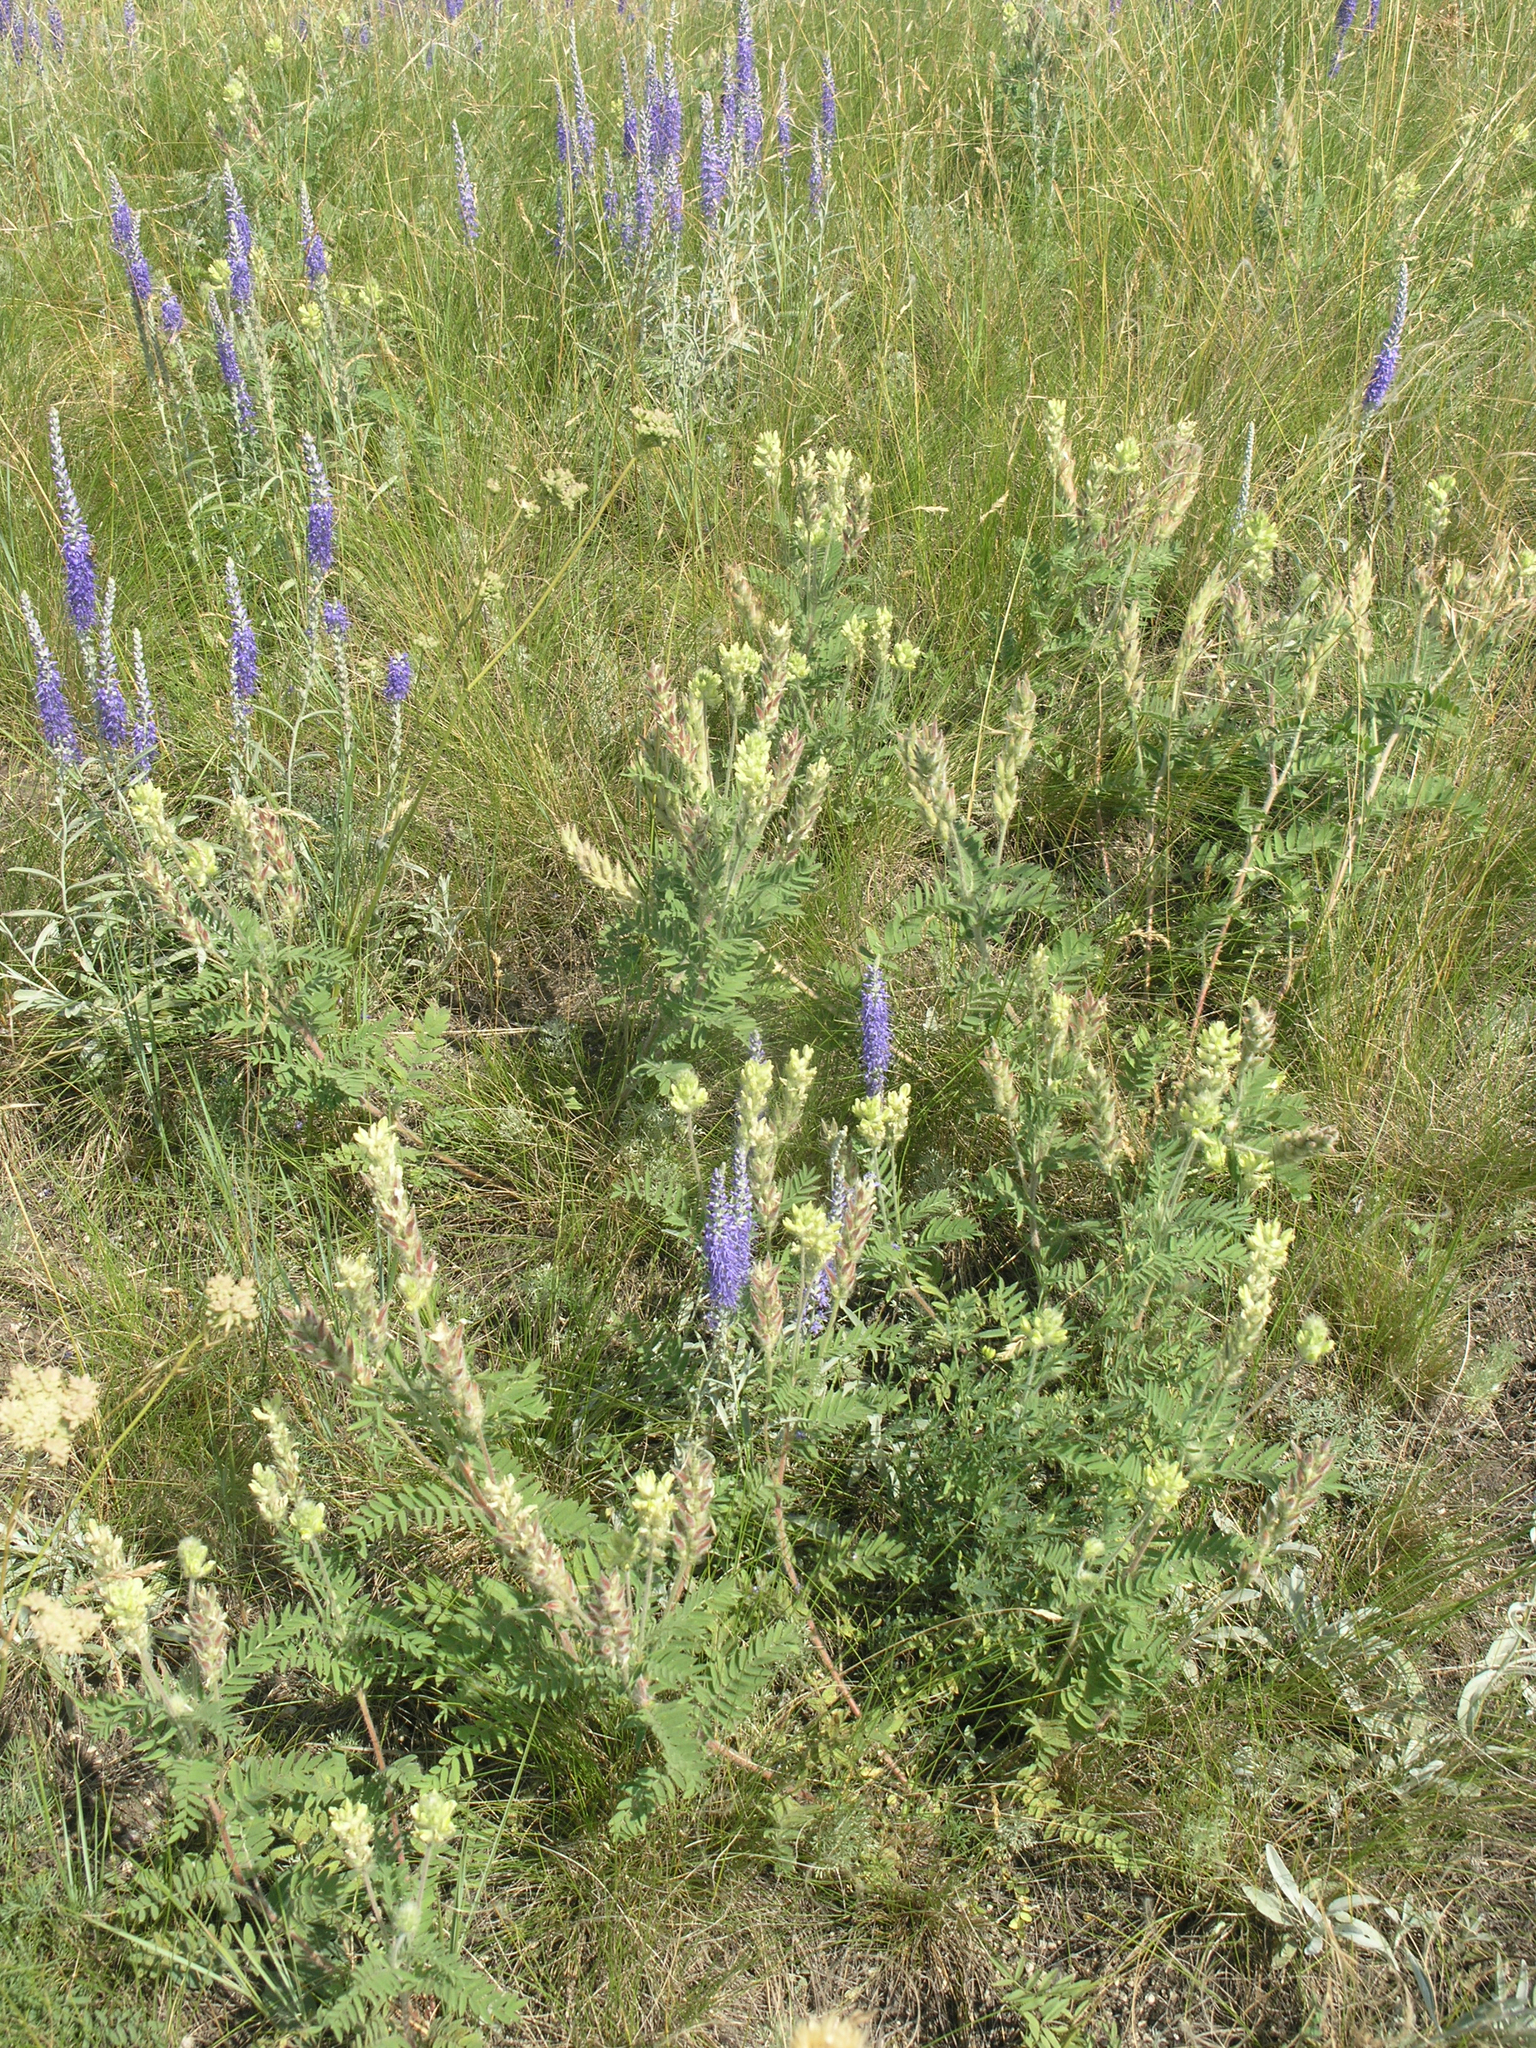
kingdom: Plantae
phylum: Tracheophyta
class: Magnoliopsida
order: Fabales
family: Fabaceae
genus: Oxytropis
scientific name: Oxytropis pilosa
